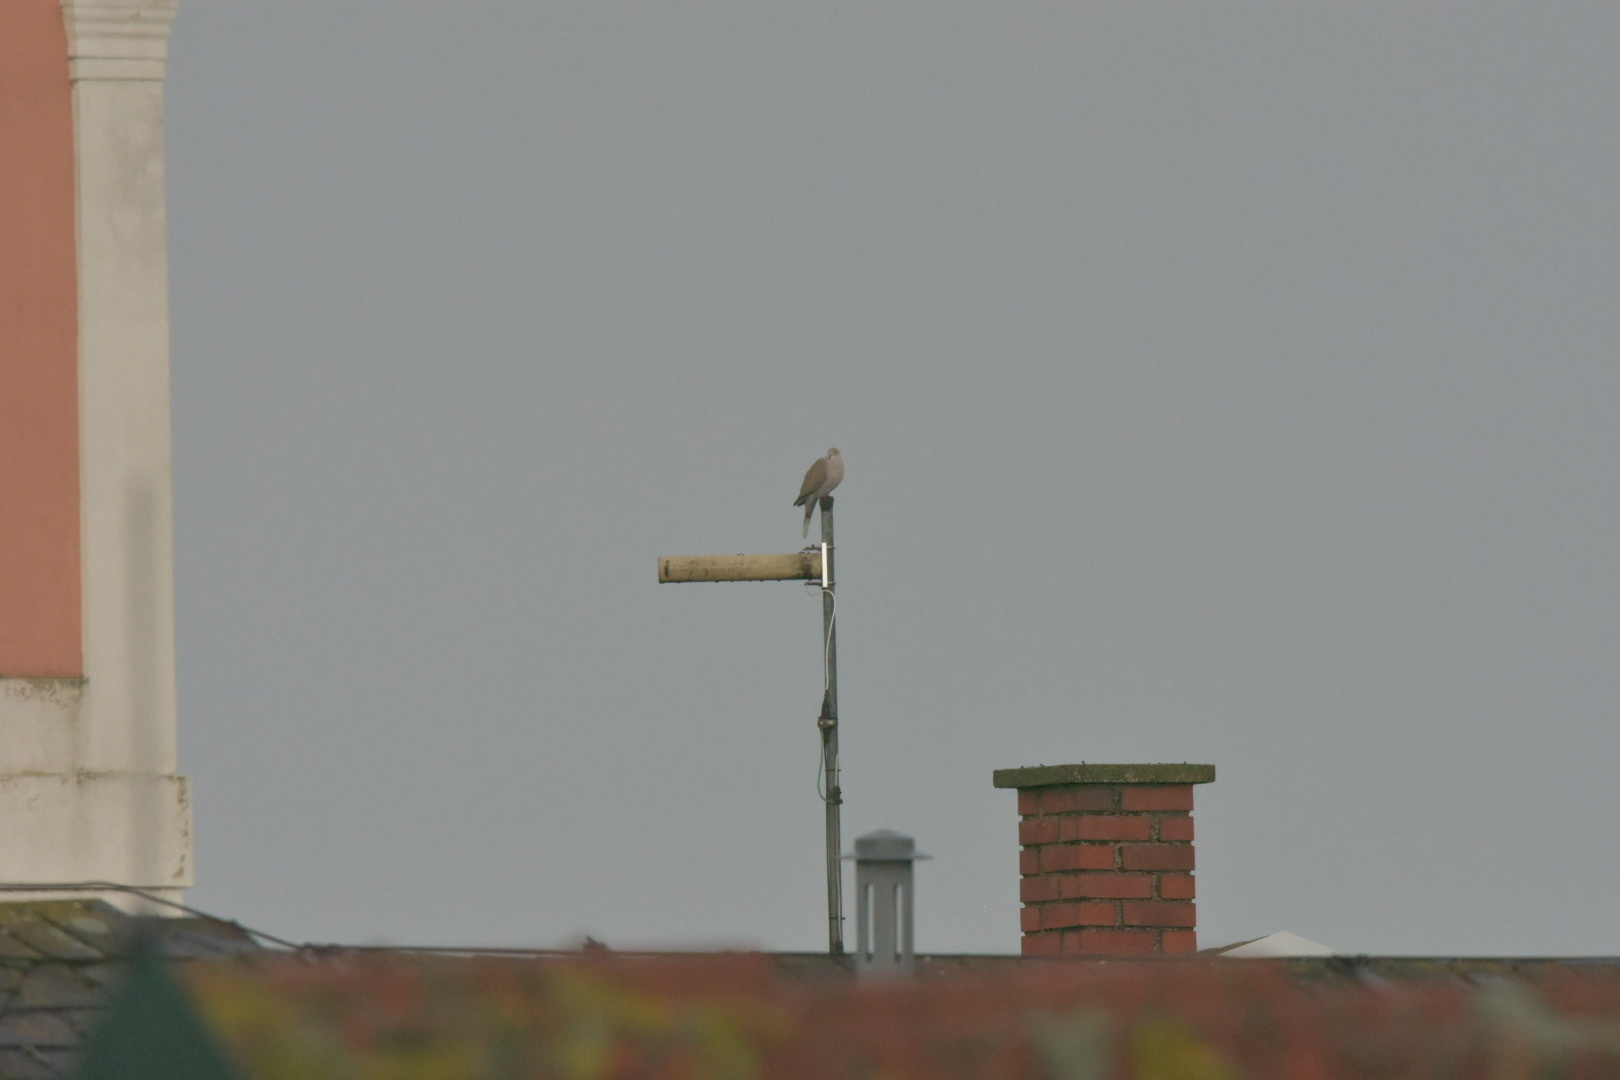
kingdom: Animalia
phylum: Chordata
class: Aves
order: Columbiformes
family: Columbidae
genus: Streptopelia
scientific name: Streptopelia decaocto
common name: Eurasian collared dove
